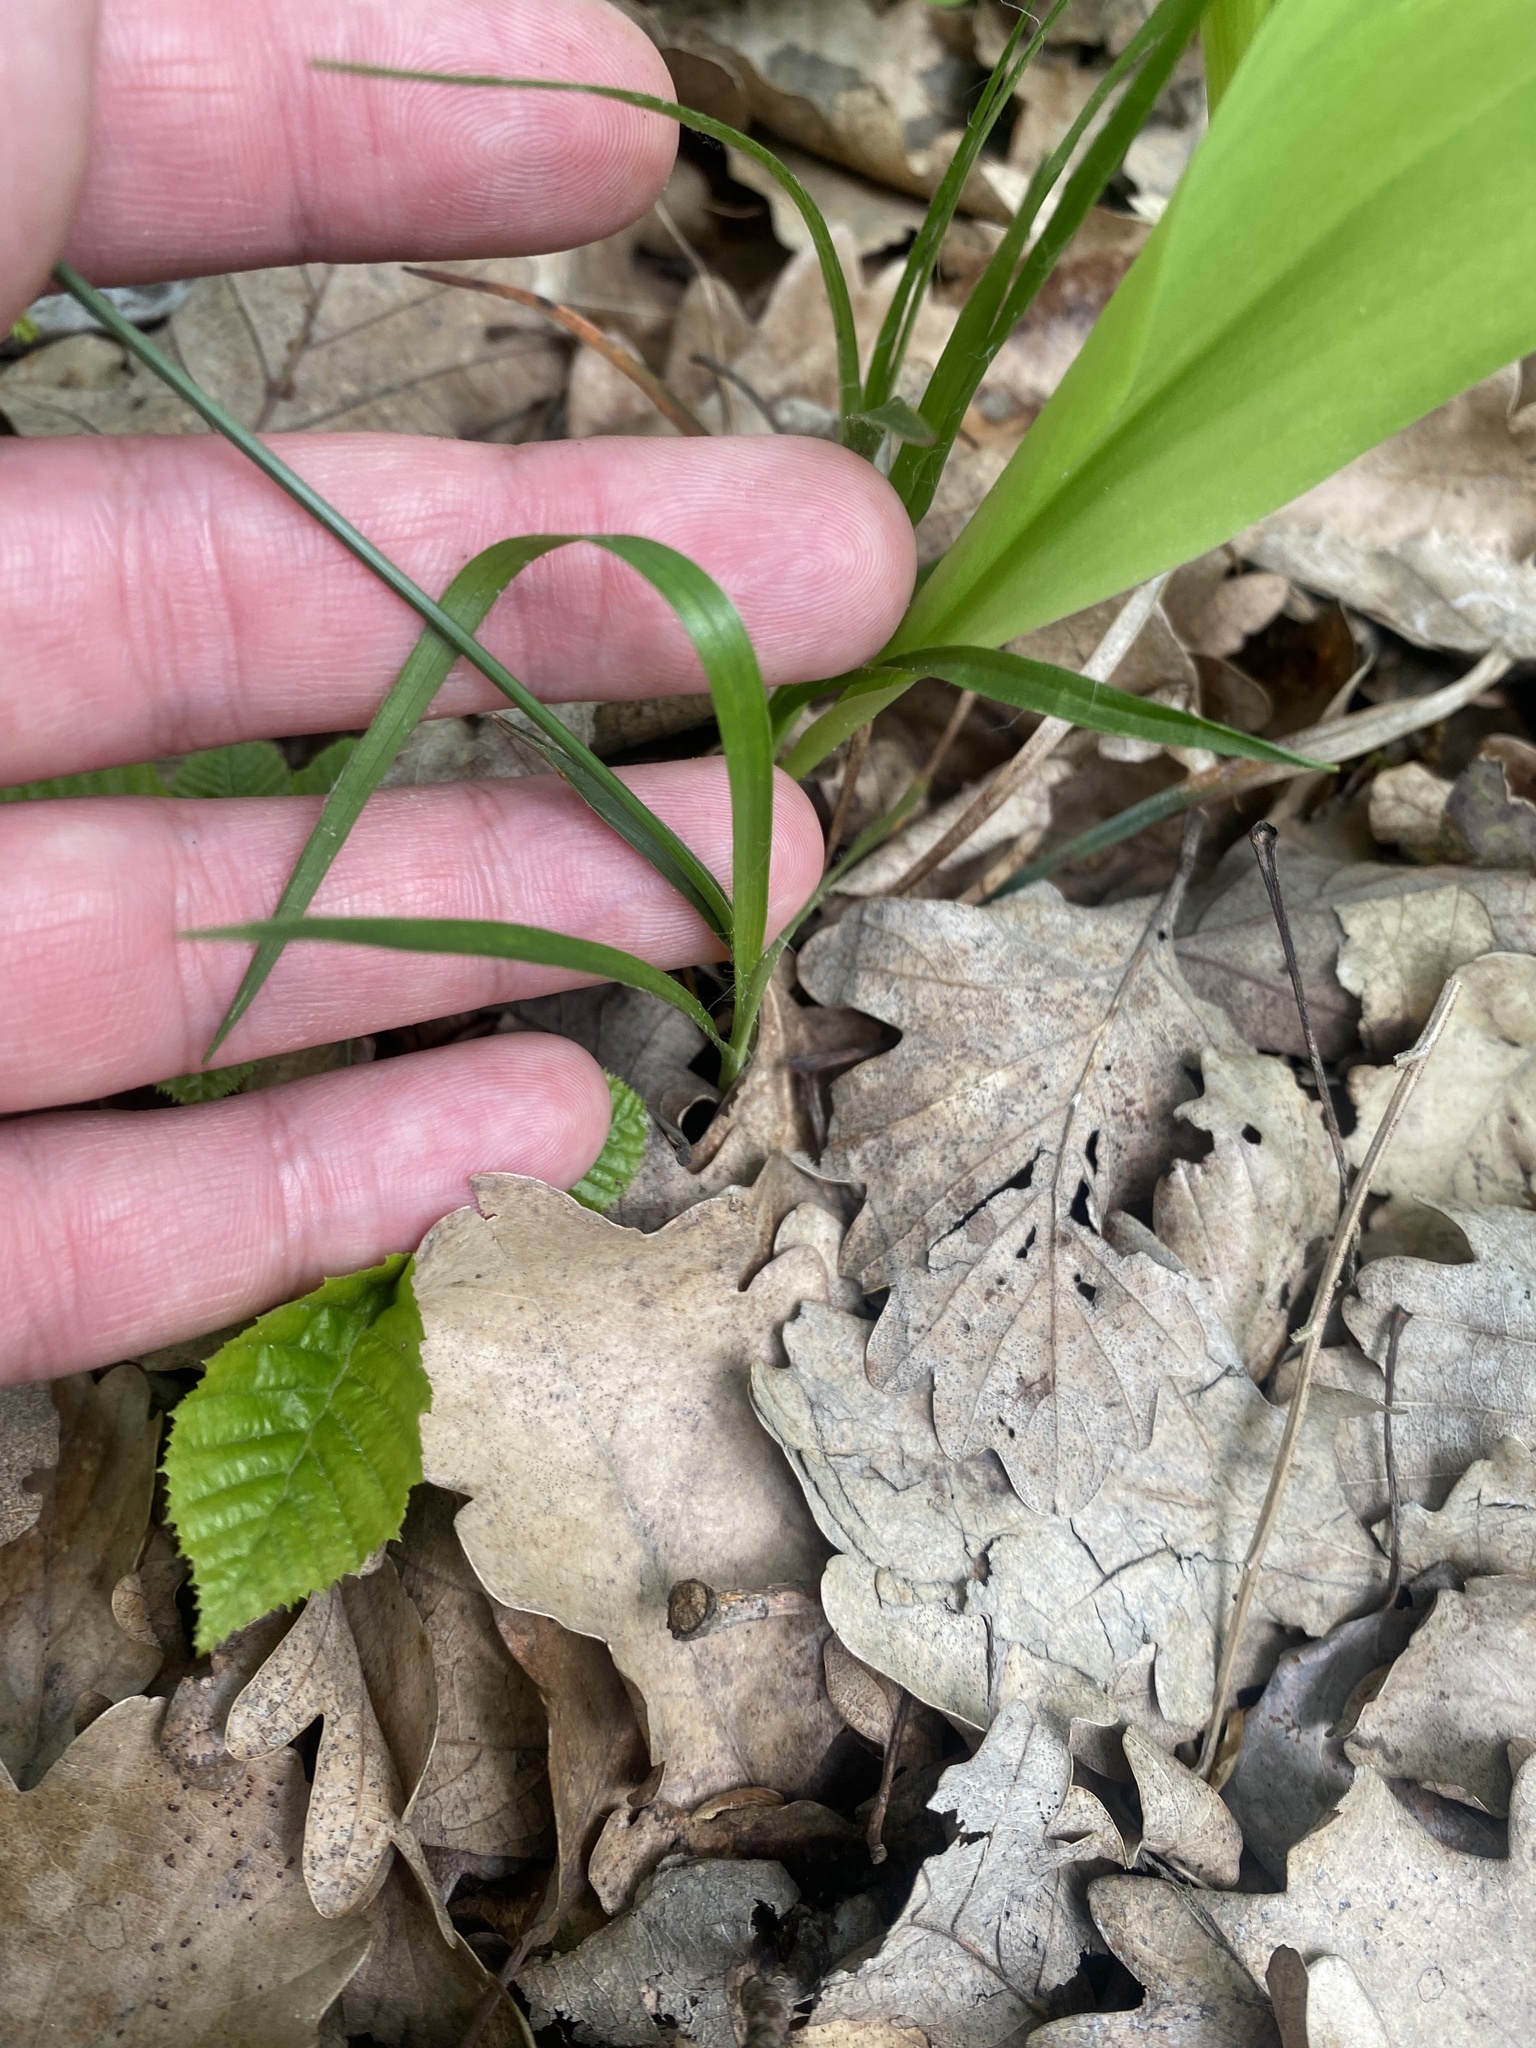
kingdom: Plantae
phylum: Tracheophyta
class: Liliopsida
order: Poales
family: Juncaceae
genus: Luzula
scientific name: Luzula forsteri
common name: Southern wood-rush
